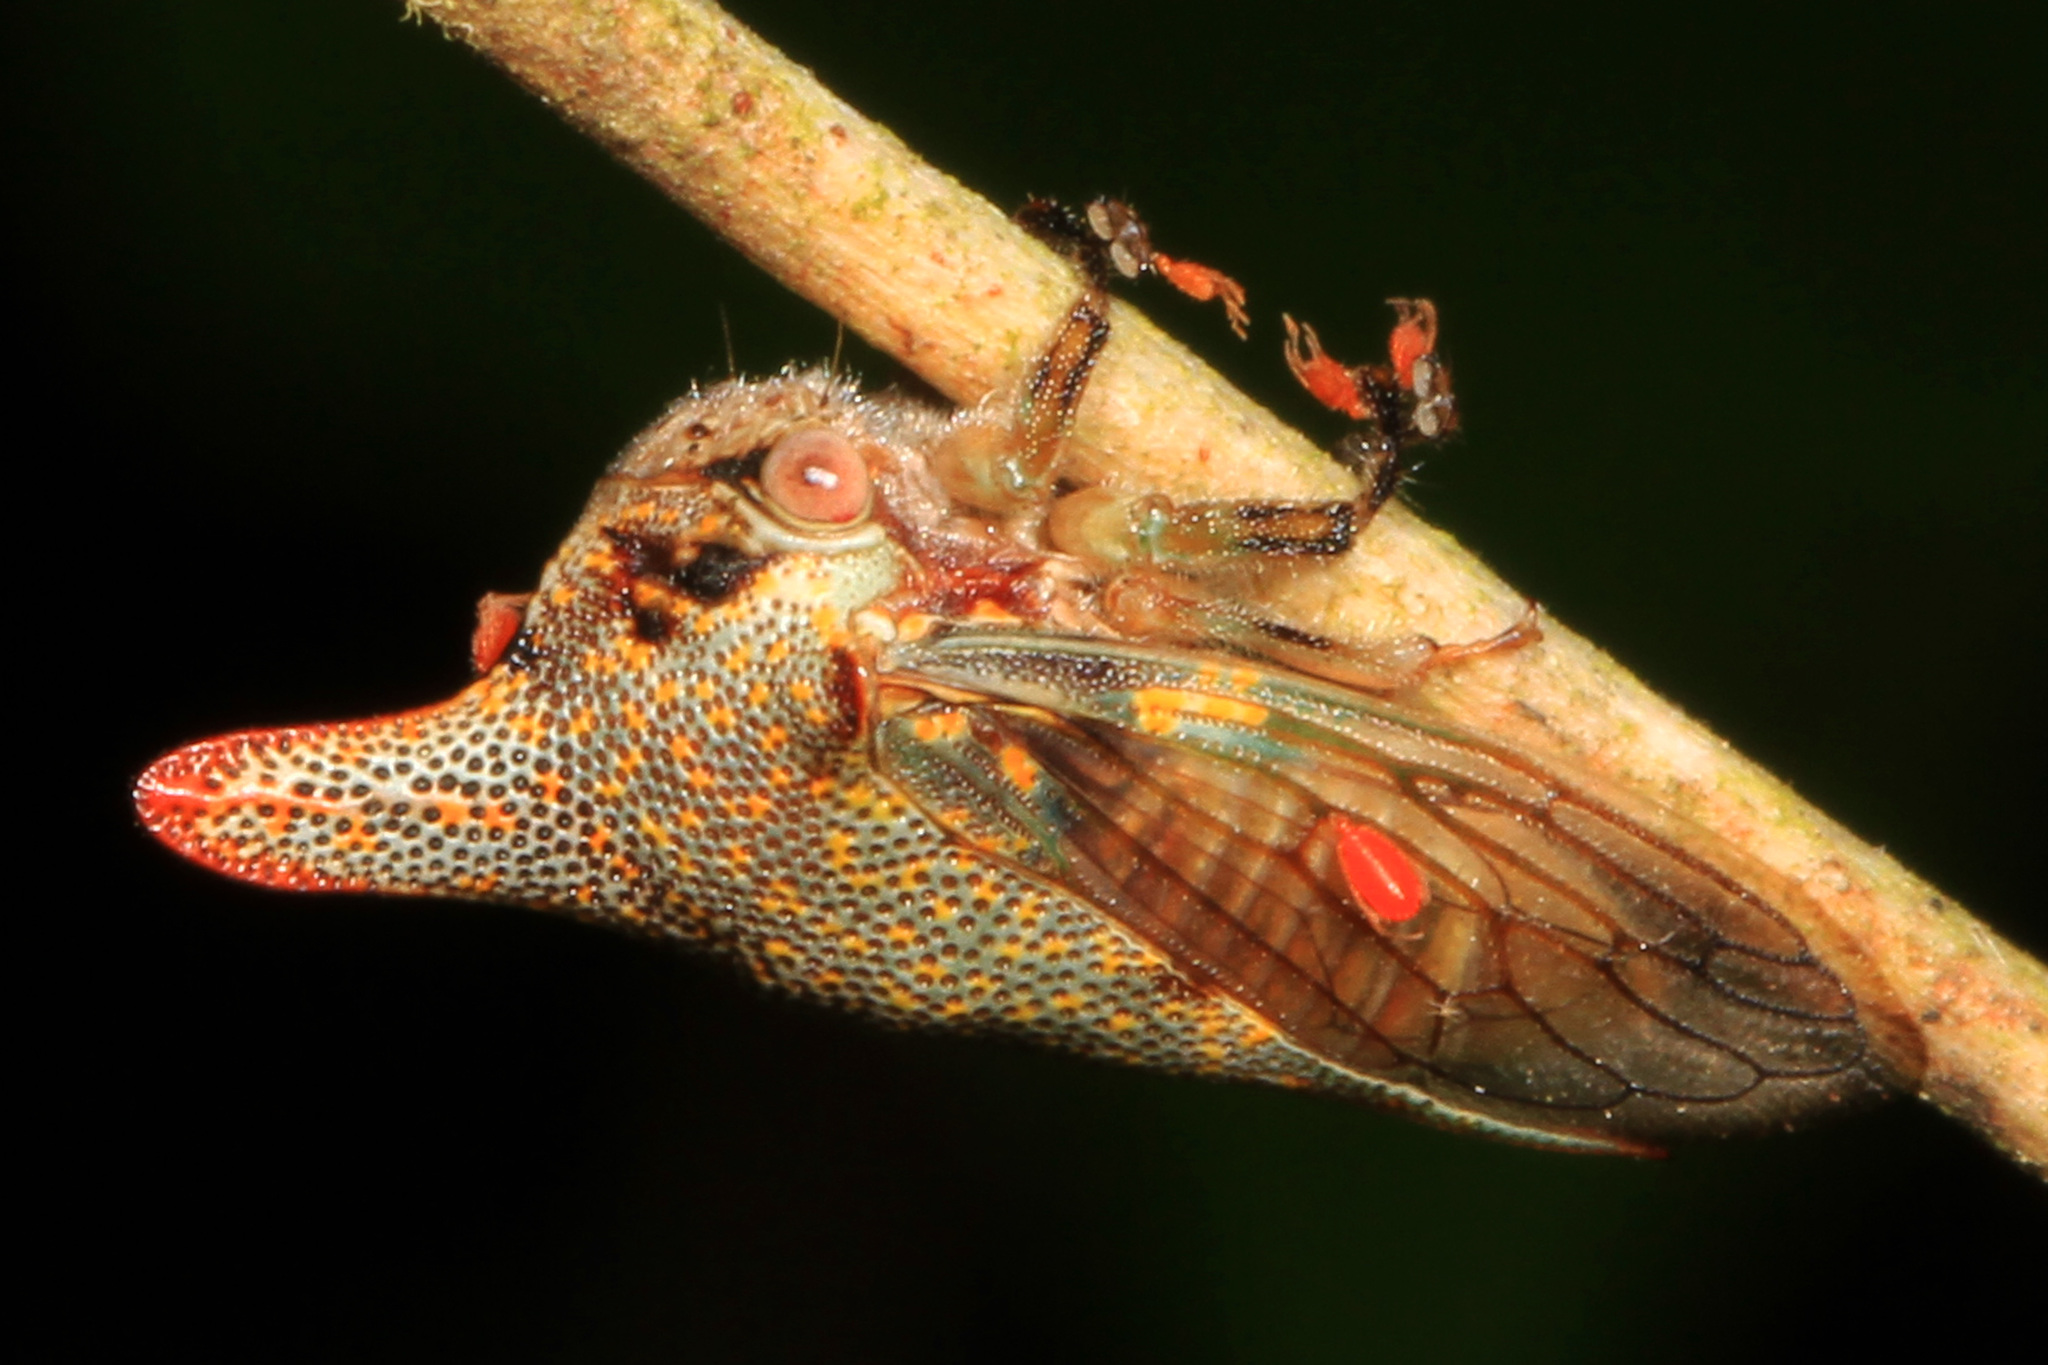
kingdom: Animalia
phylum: Arthropoda
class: Insecta
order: Hemiptera
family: Membracidae
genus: Platycotis
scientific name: Platycotis vittatus
